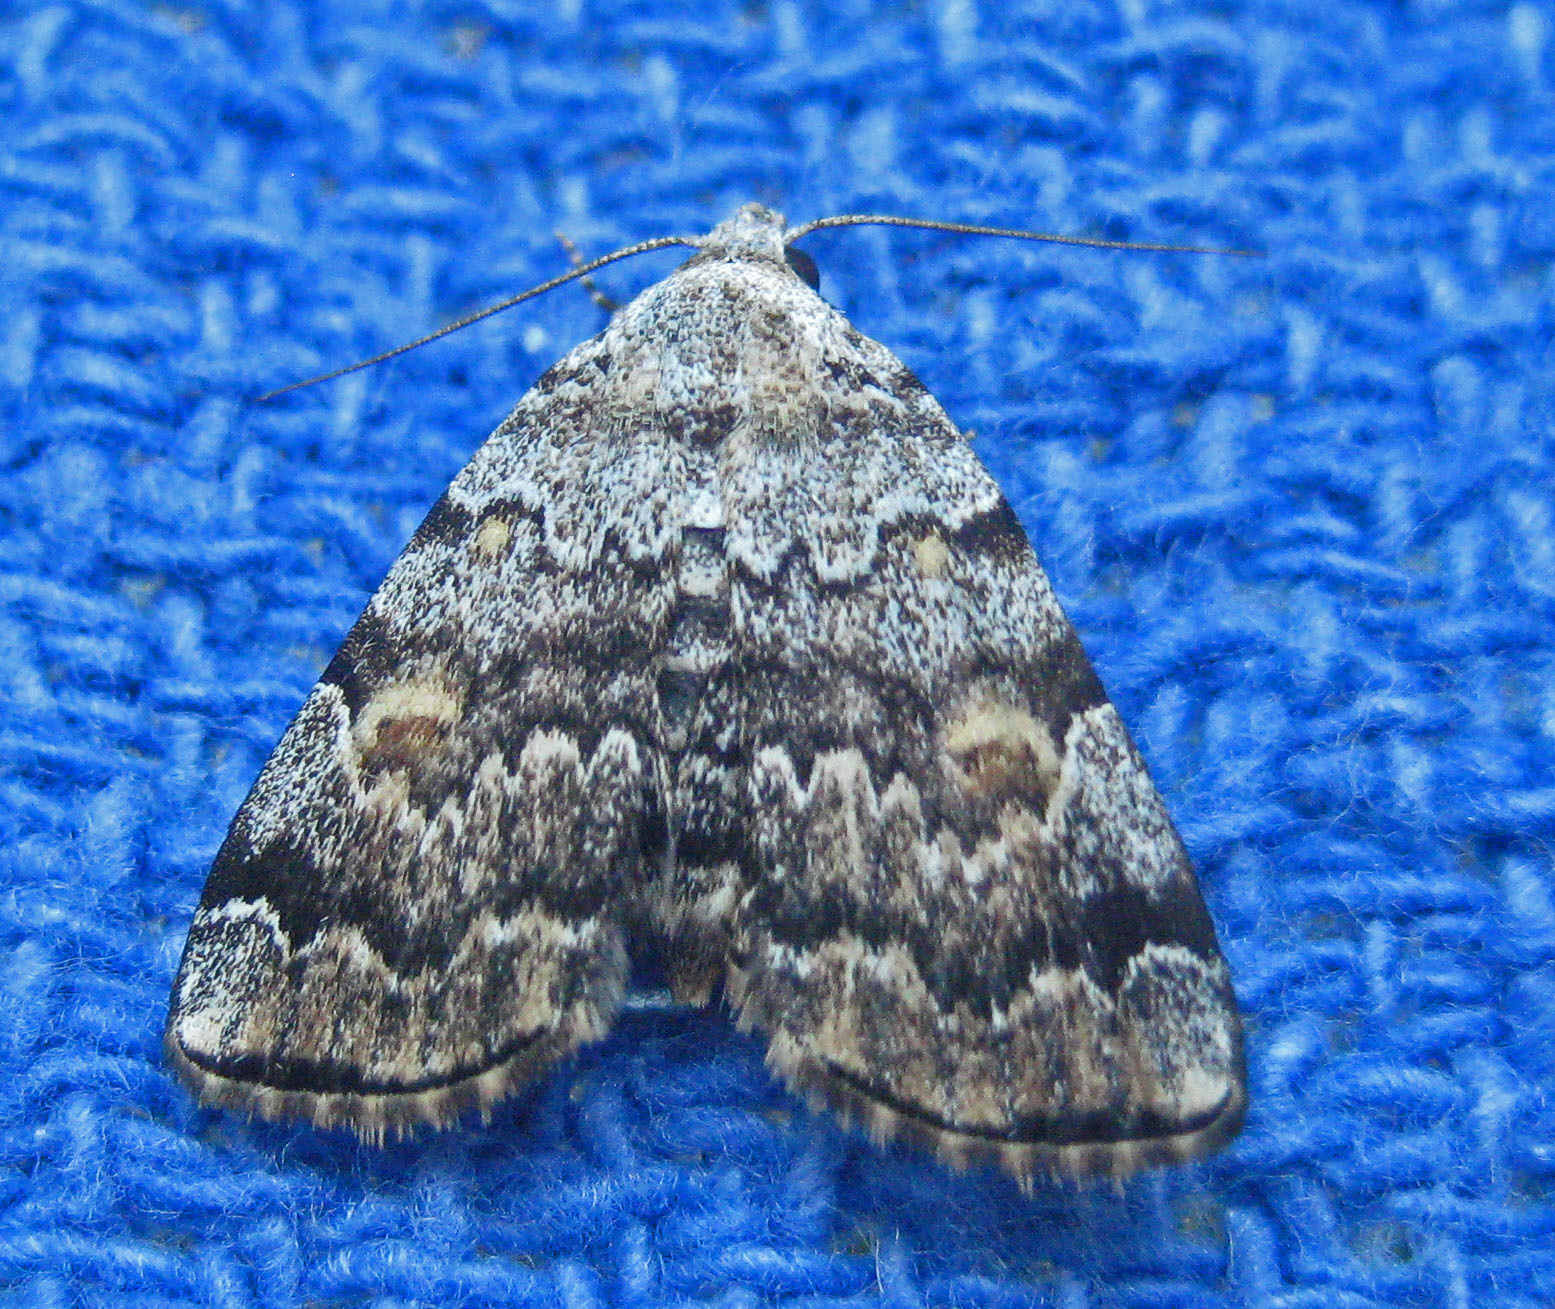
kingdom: Animalia
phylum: Arthropoda
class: Insecta
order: Lepidoptera
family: Erebidae
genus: Idia
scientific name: Idia americalis
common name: American idia moth
